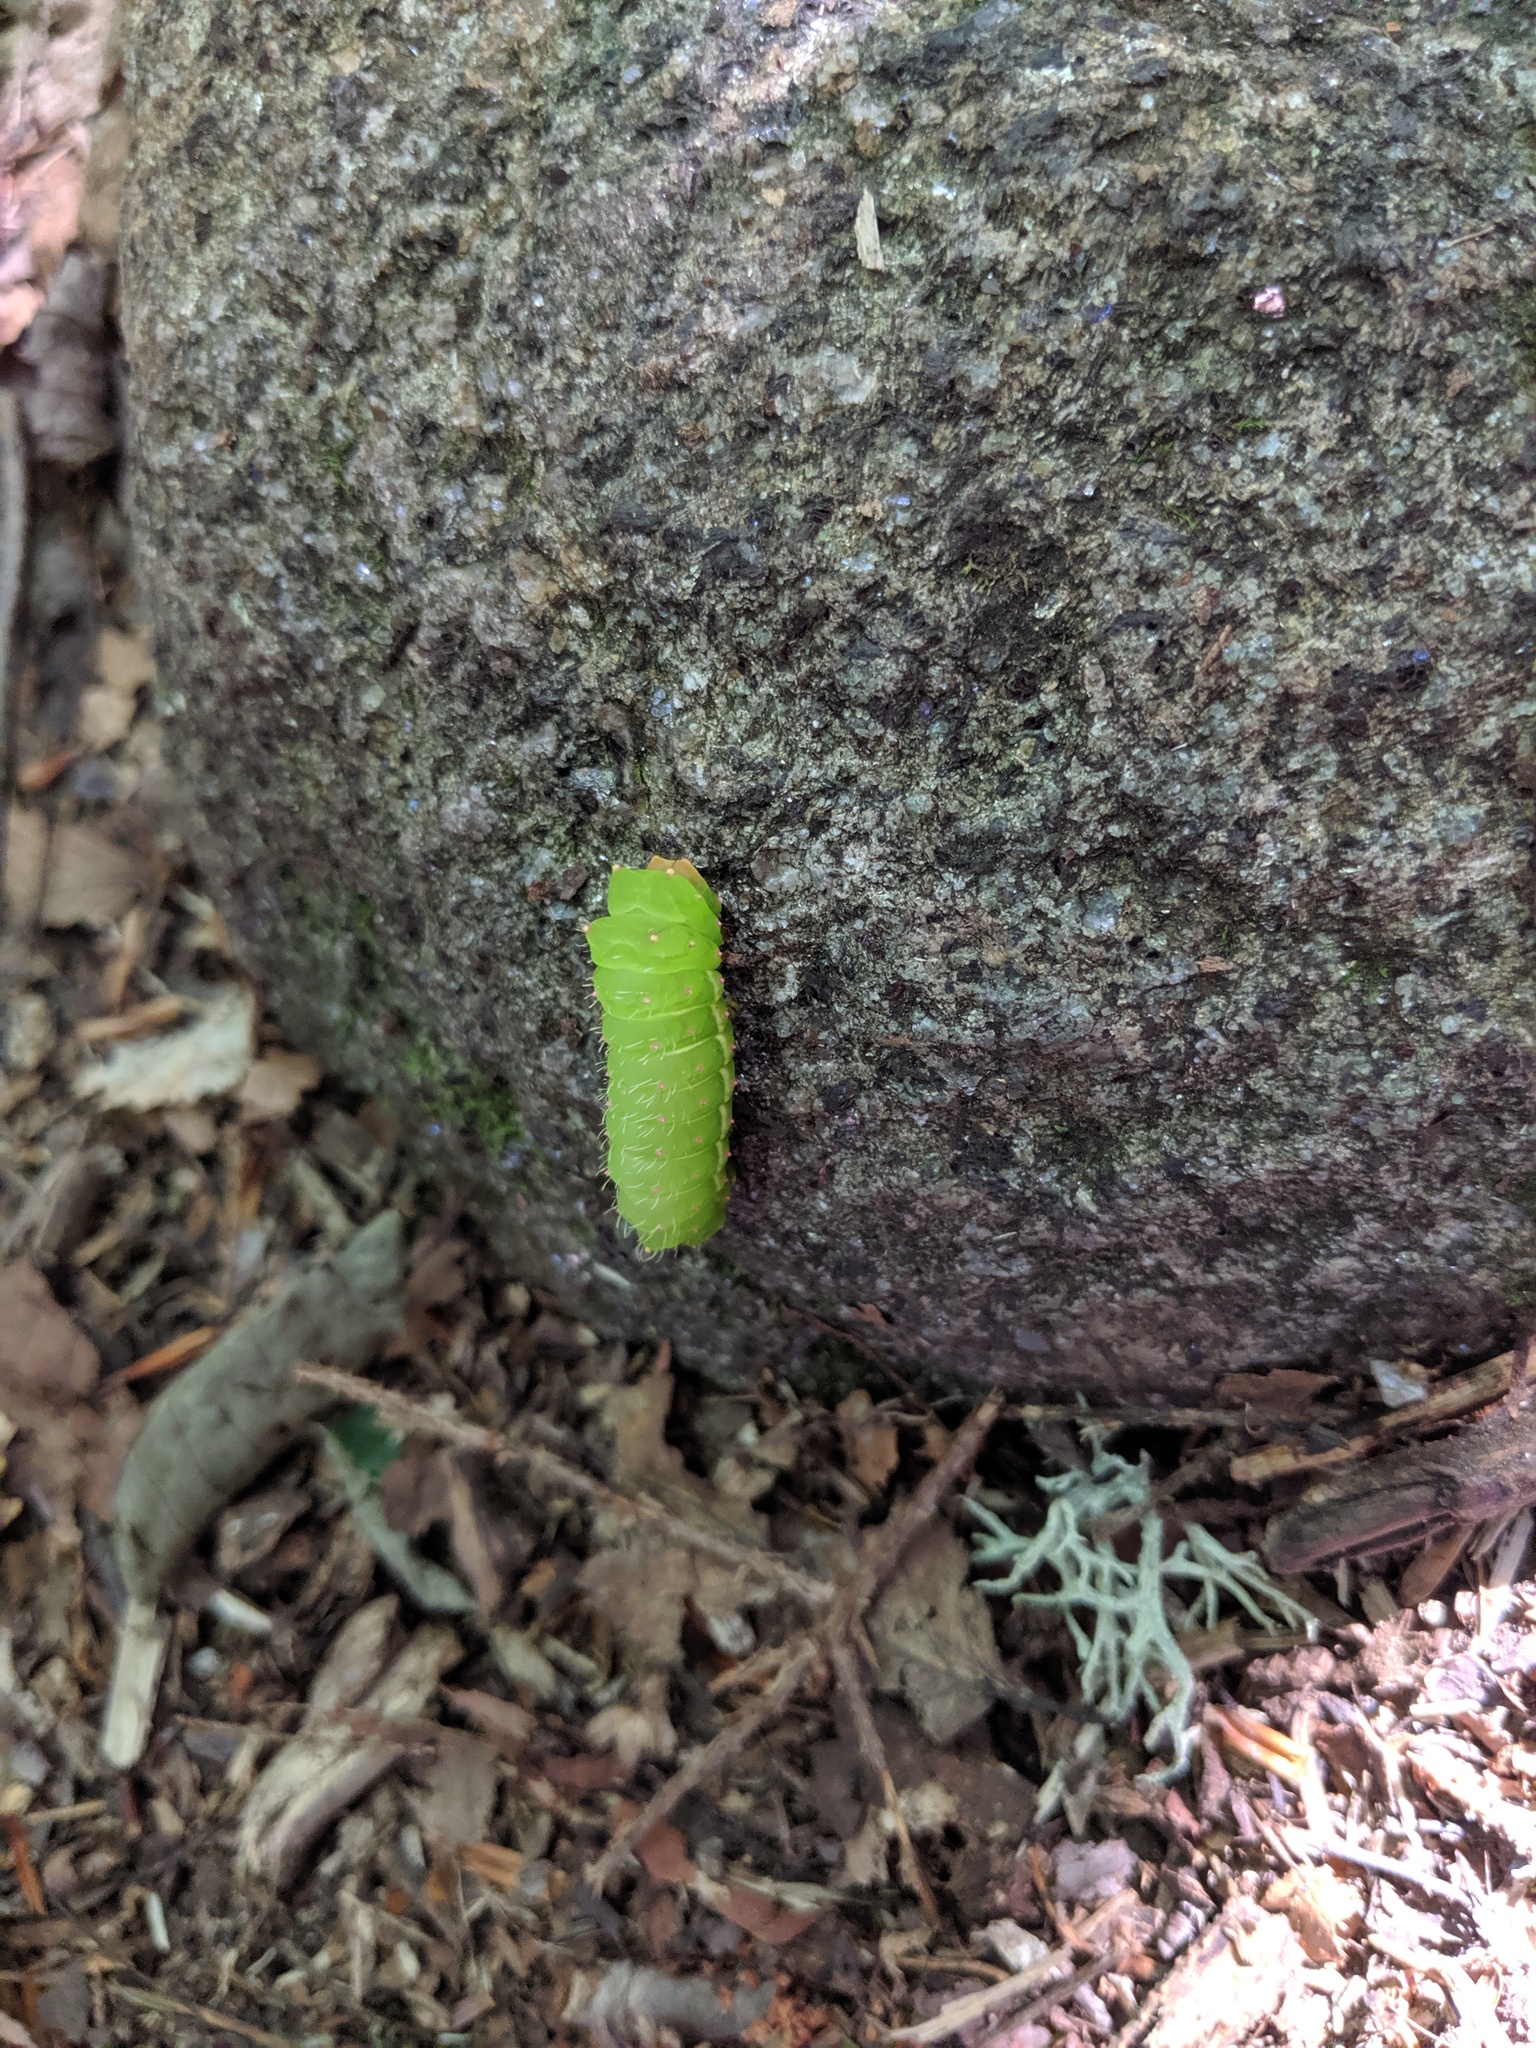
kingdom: Animalia
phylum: Arthropoda
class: Insecta
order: Lepidoptera
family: Saturniidae
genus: Actias
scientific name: Actias luna
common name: Luna moth
